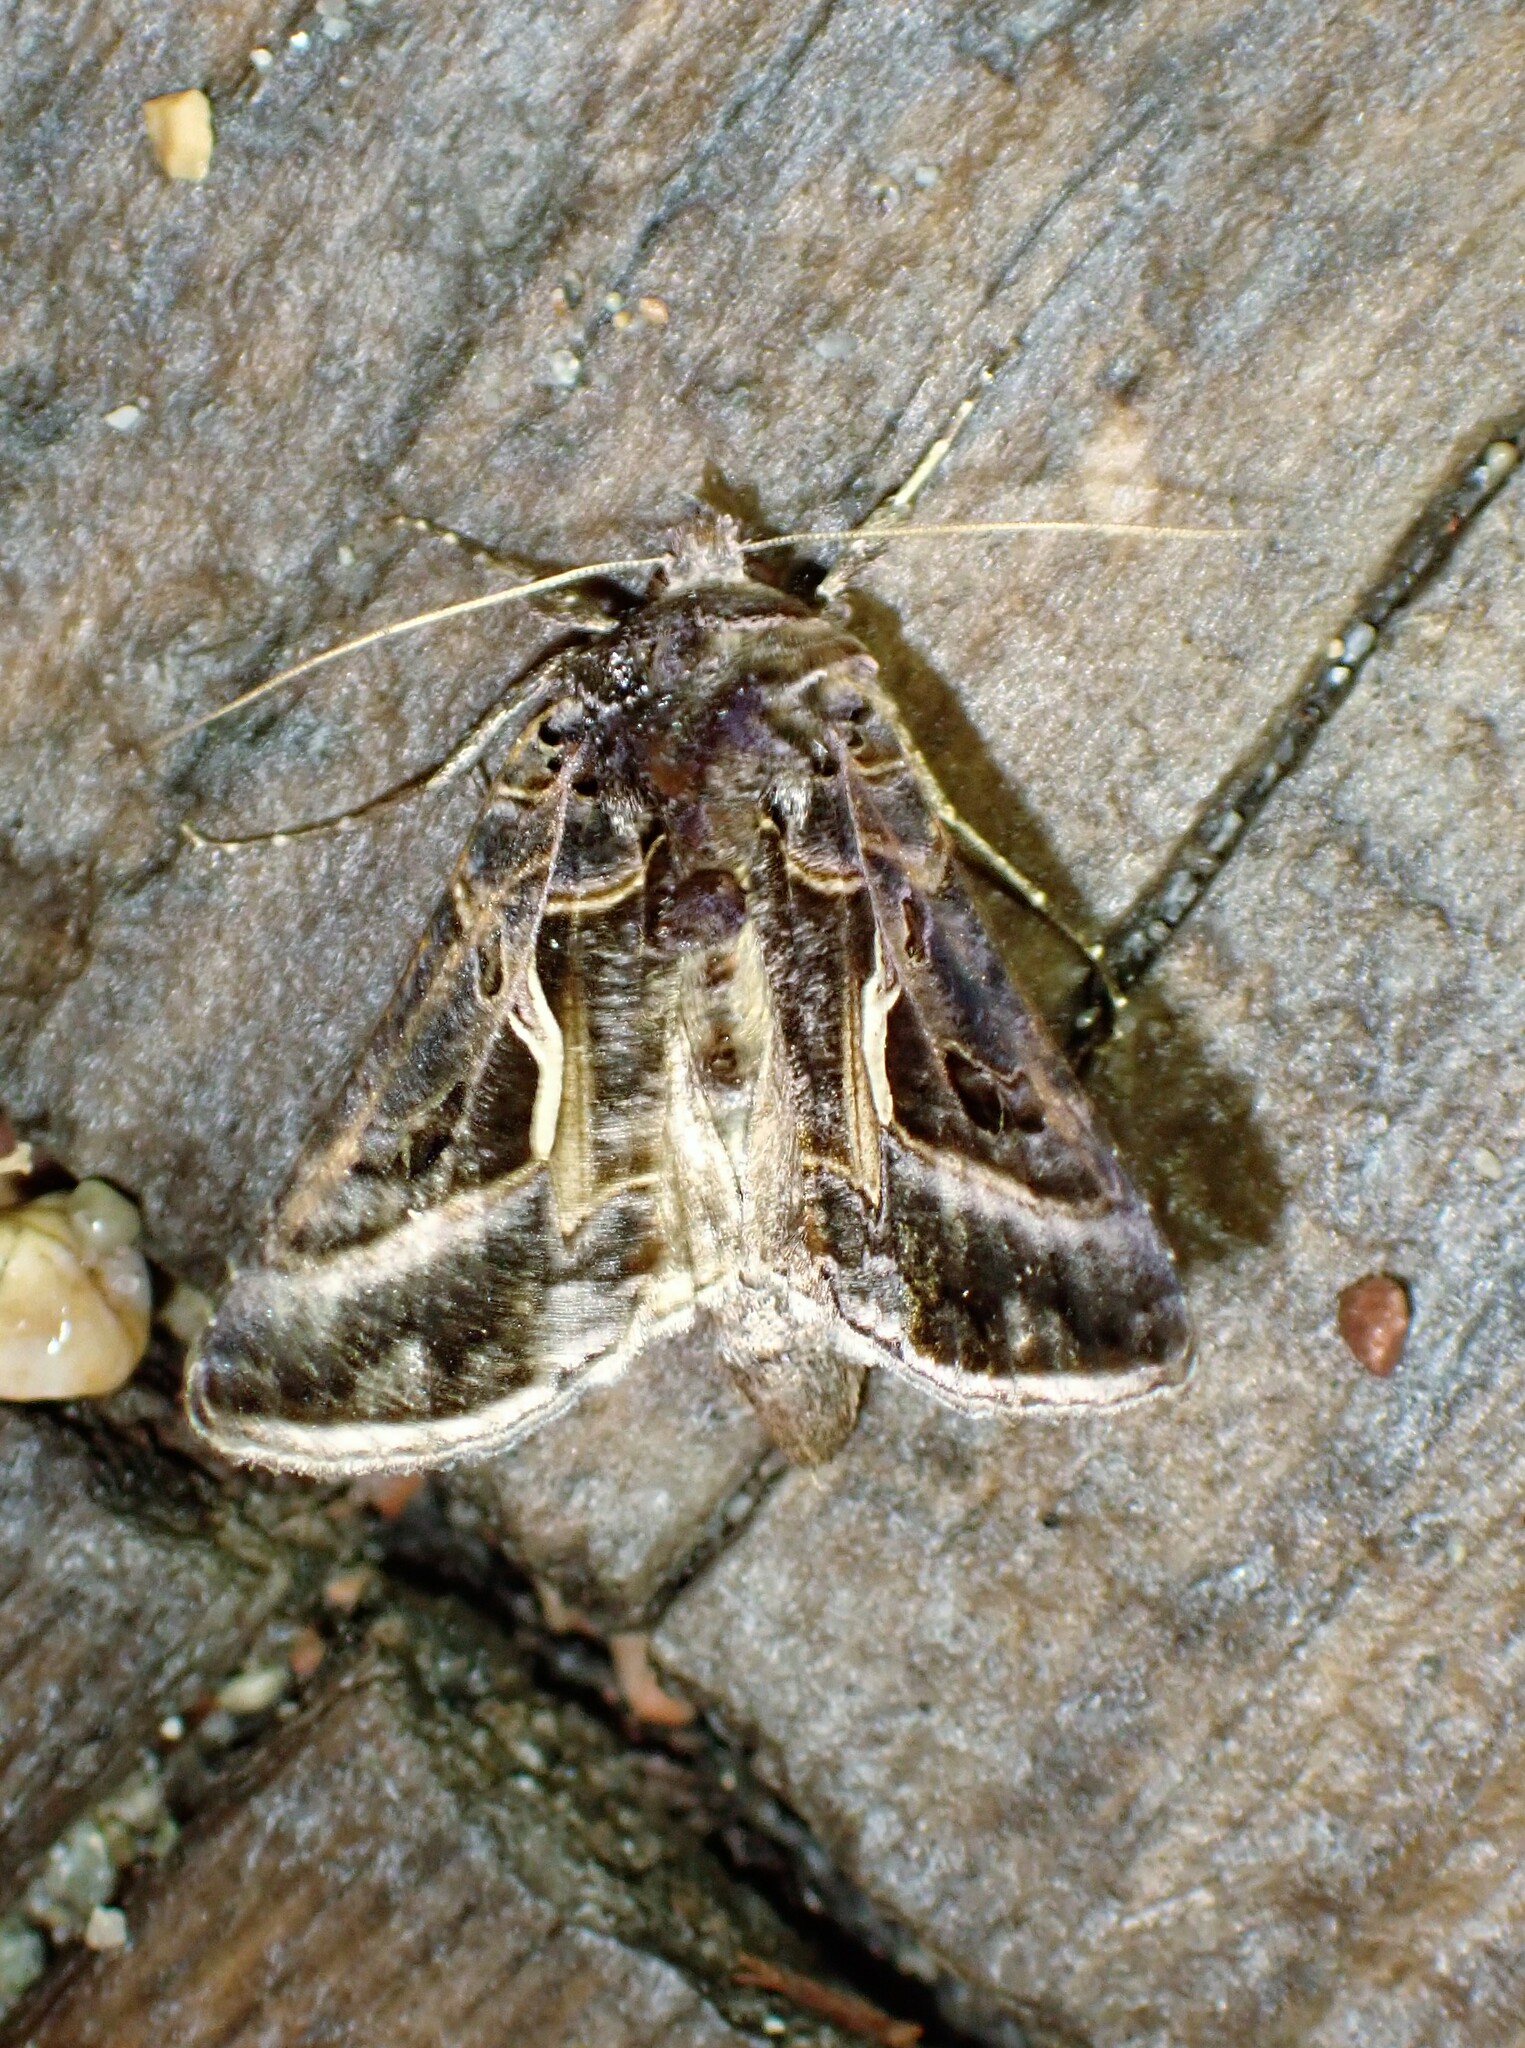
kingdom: Animalia
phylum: Arthropoda
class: Insecta
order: Lepidoptera
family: Noctuidae
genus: Autographa
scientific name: Autographa flagellum
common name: Silver whip moth
